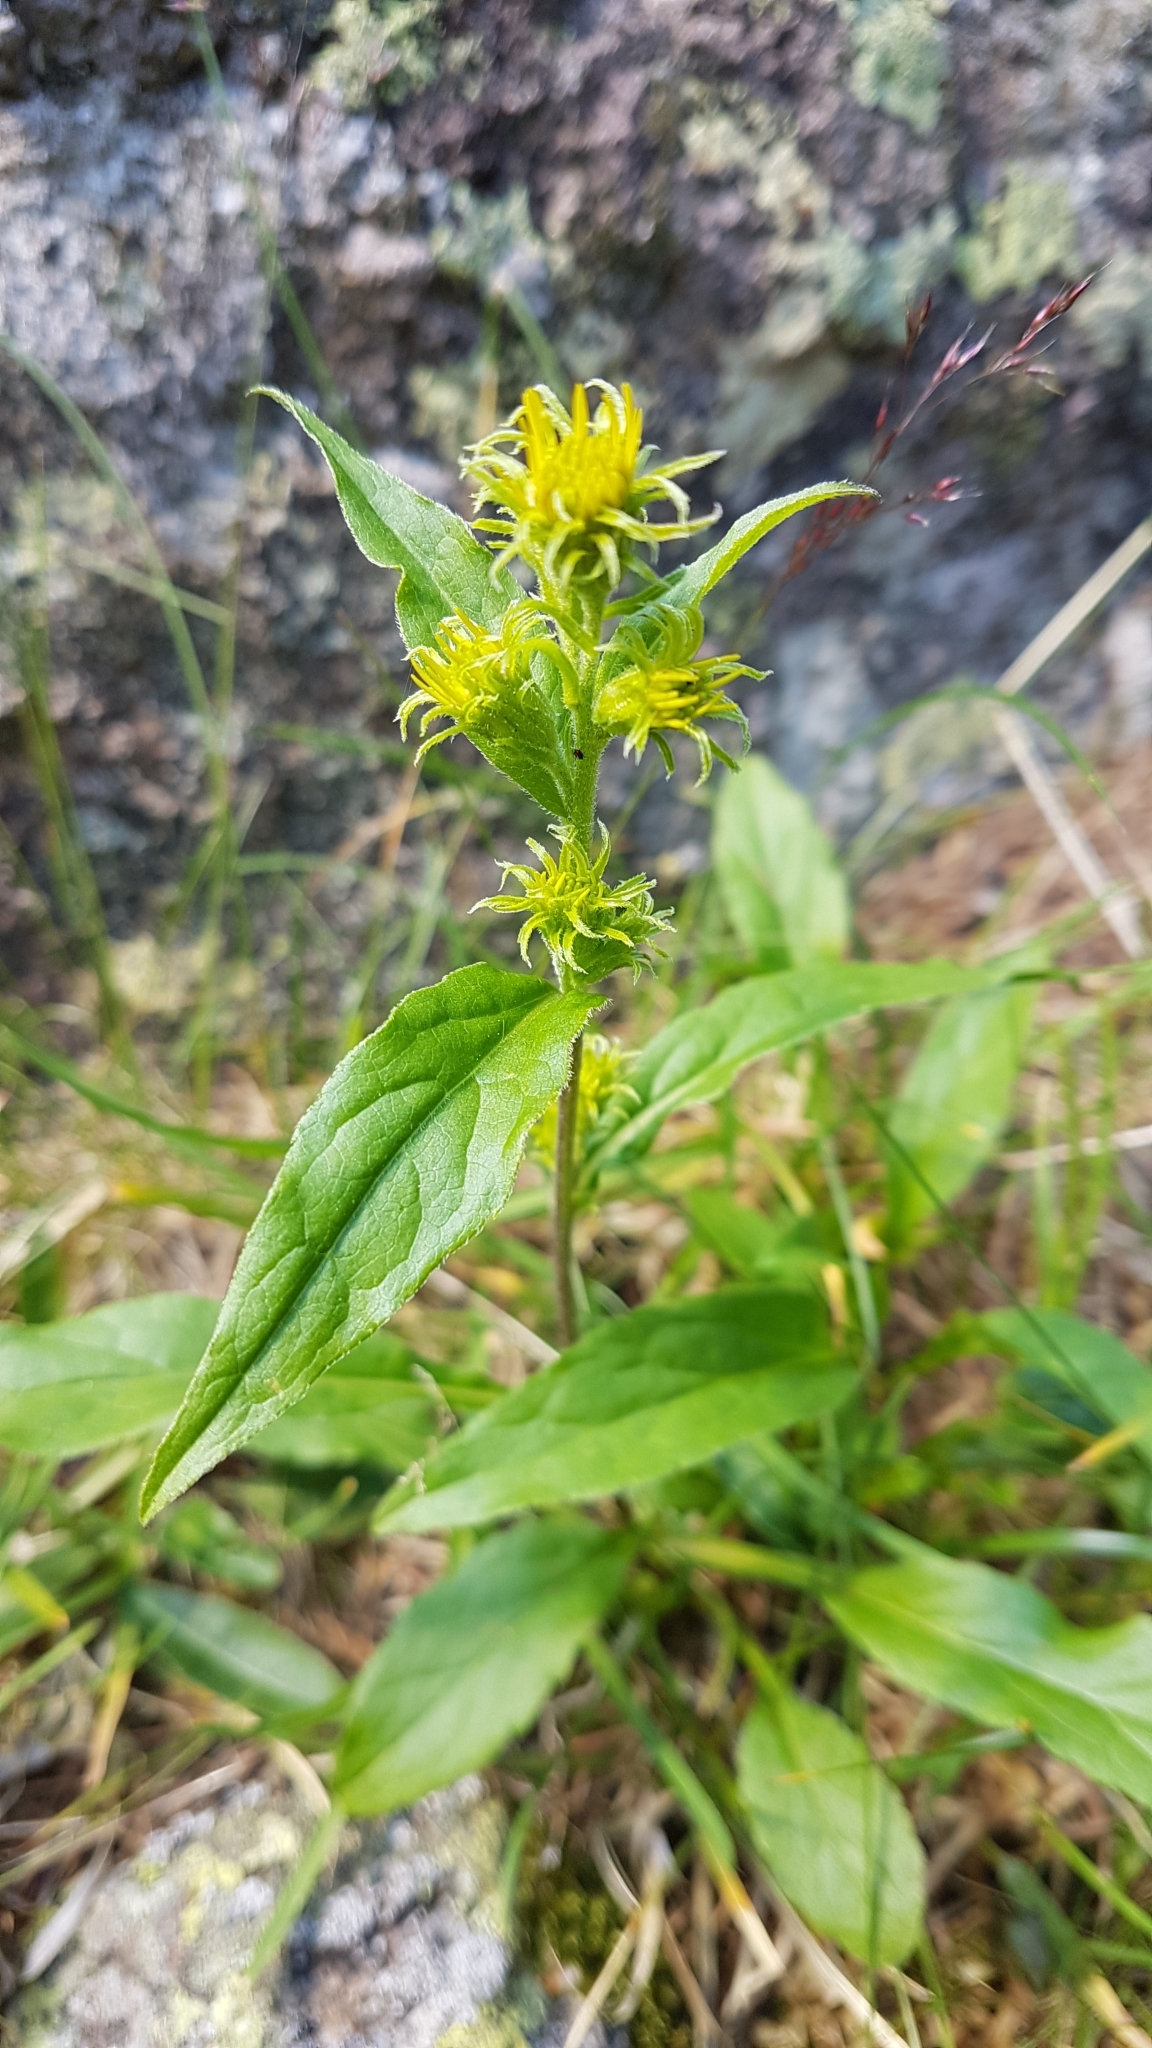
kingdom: Plantae
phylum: Tracheophyta
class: Magnoliopsida
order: Asterales
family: Asteraceae
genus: Solidago
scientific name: Solidago virgaurea
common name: Goldenrod
